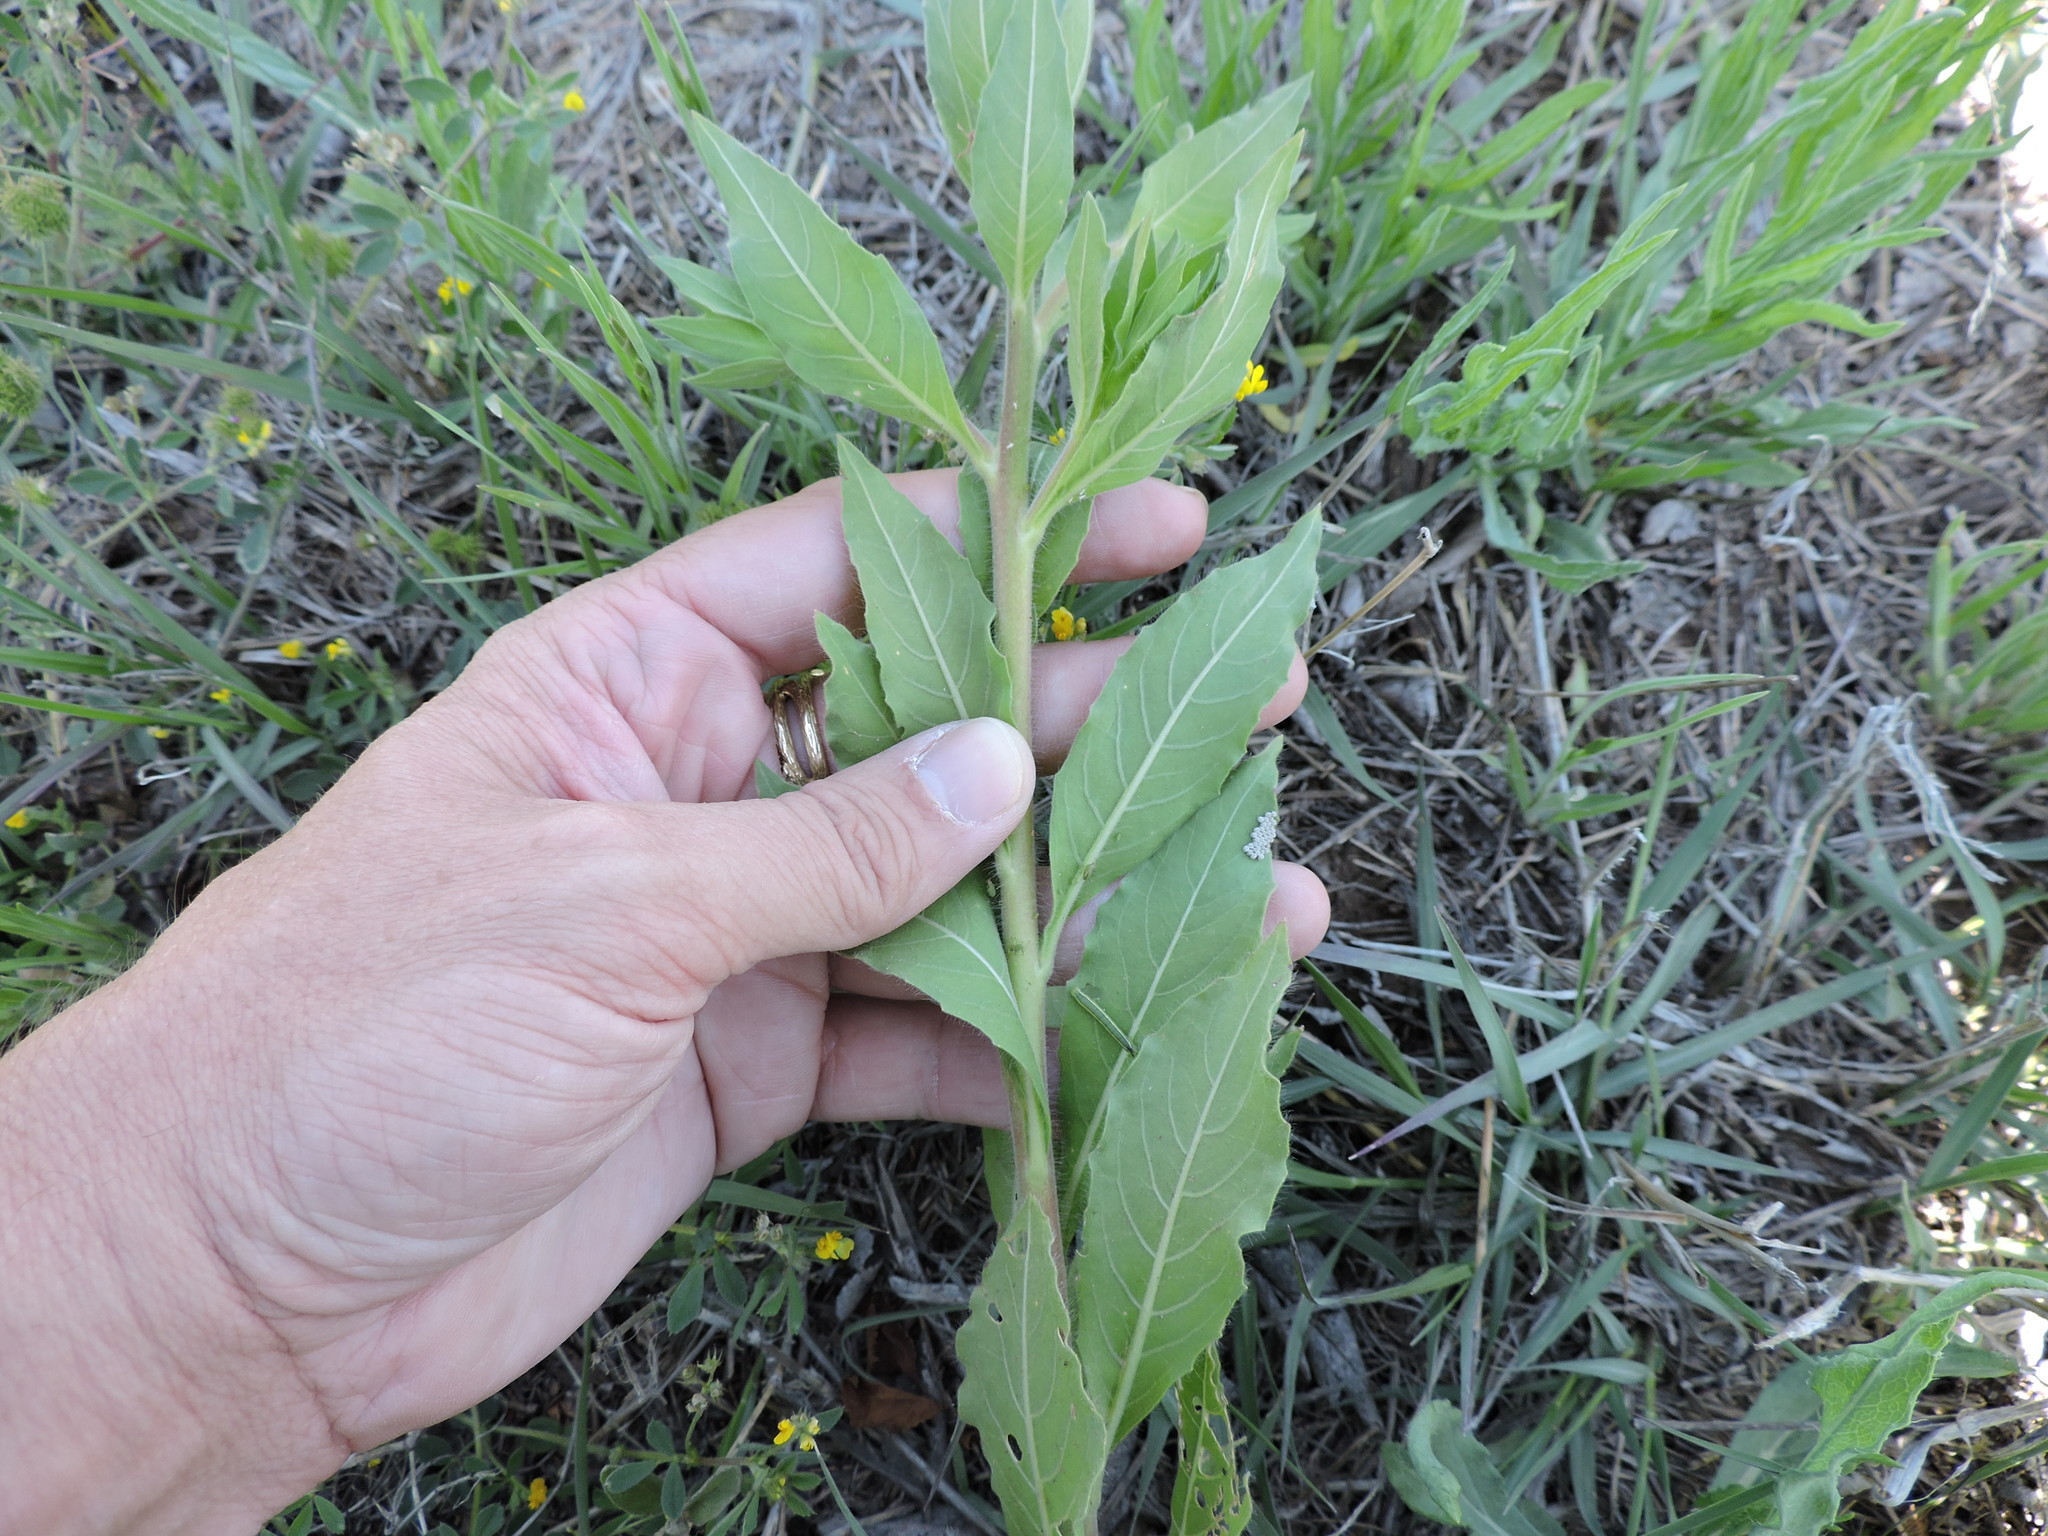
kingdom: Plantae
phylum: Tracheophyta
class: Magnoliopsida
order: Myrtales
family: Onagraceae
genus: Oenothera
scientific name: Oenothera curtiflora
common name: Velvetweed
